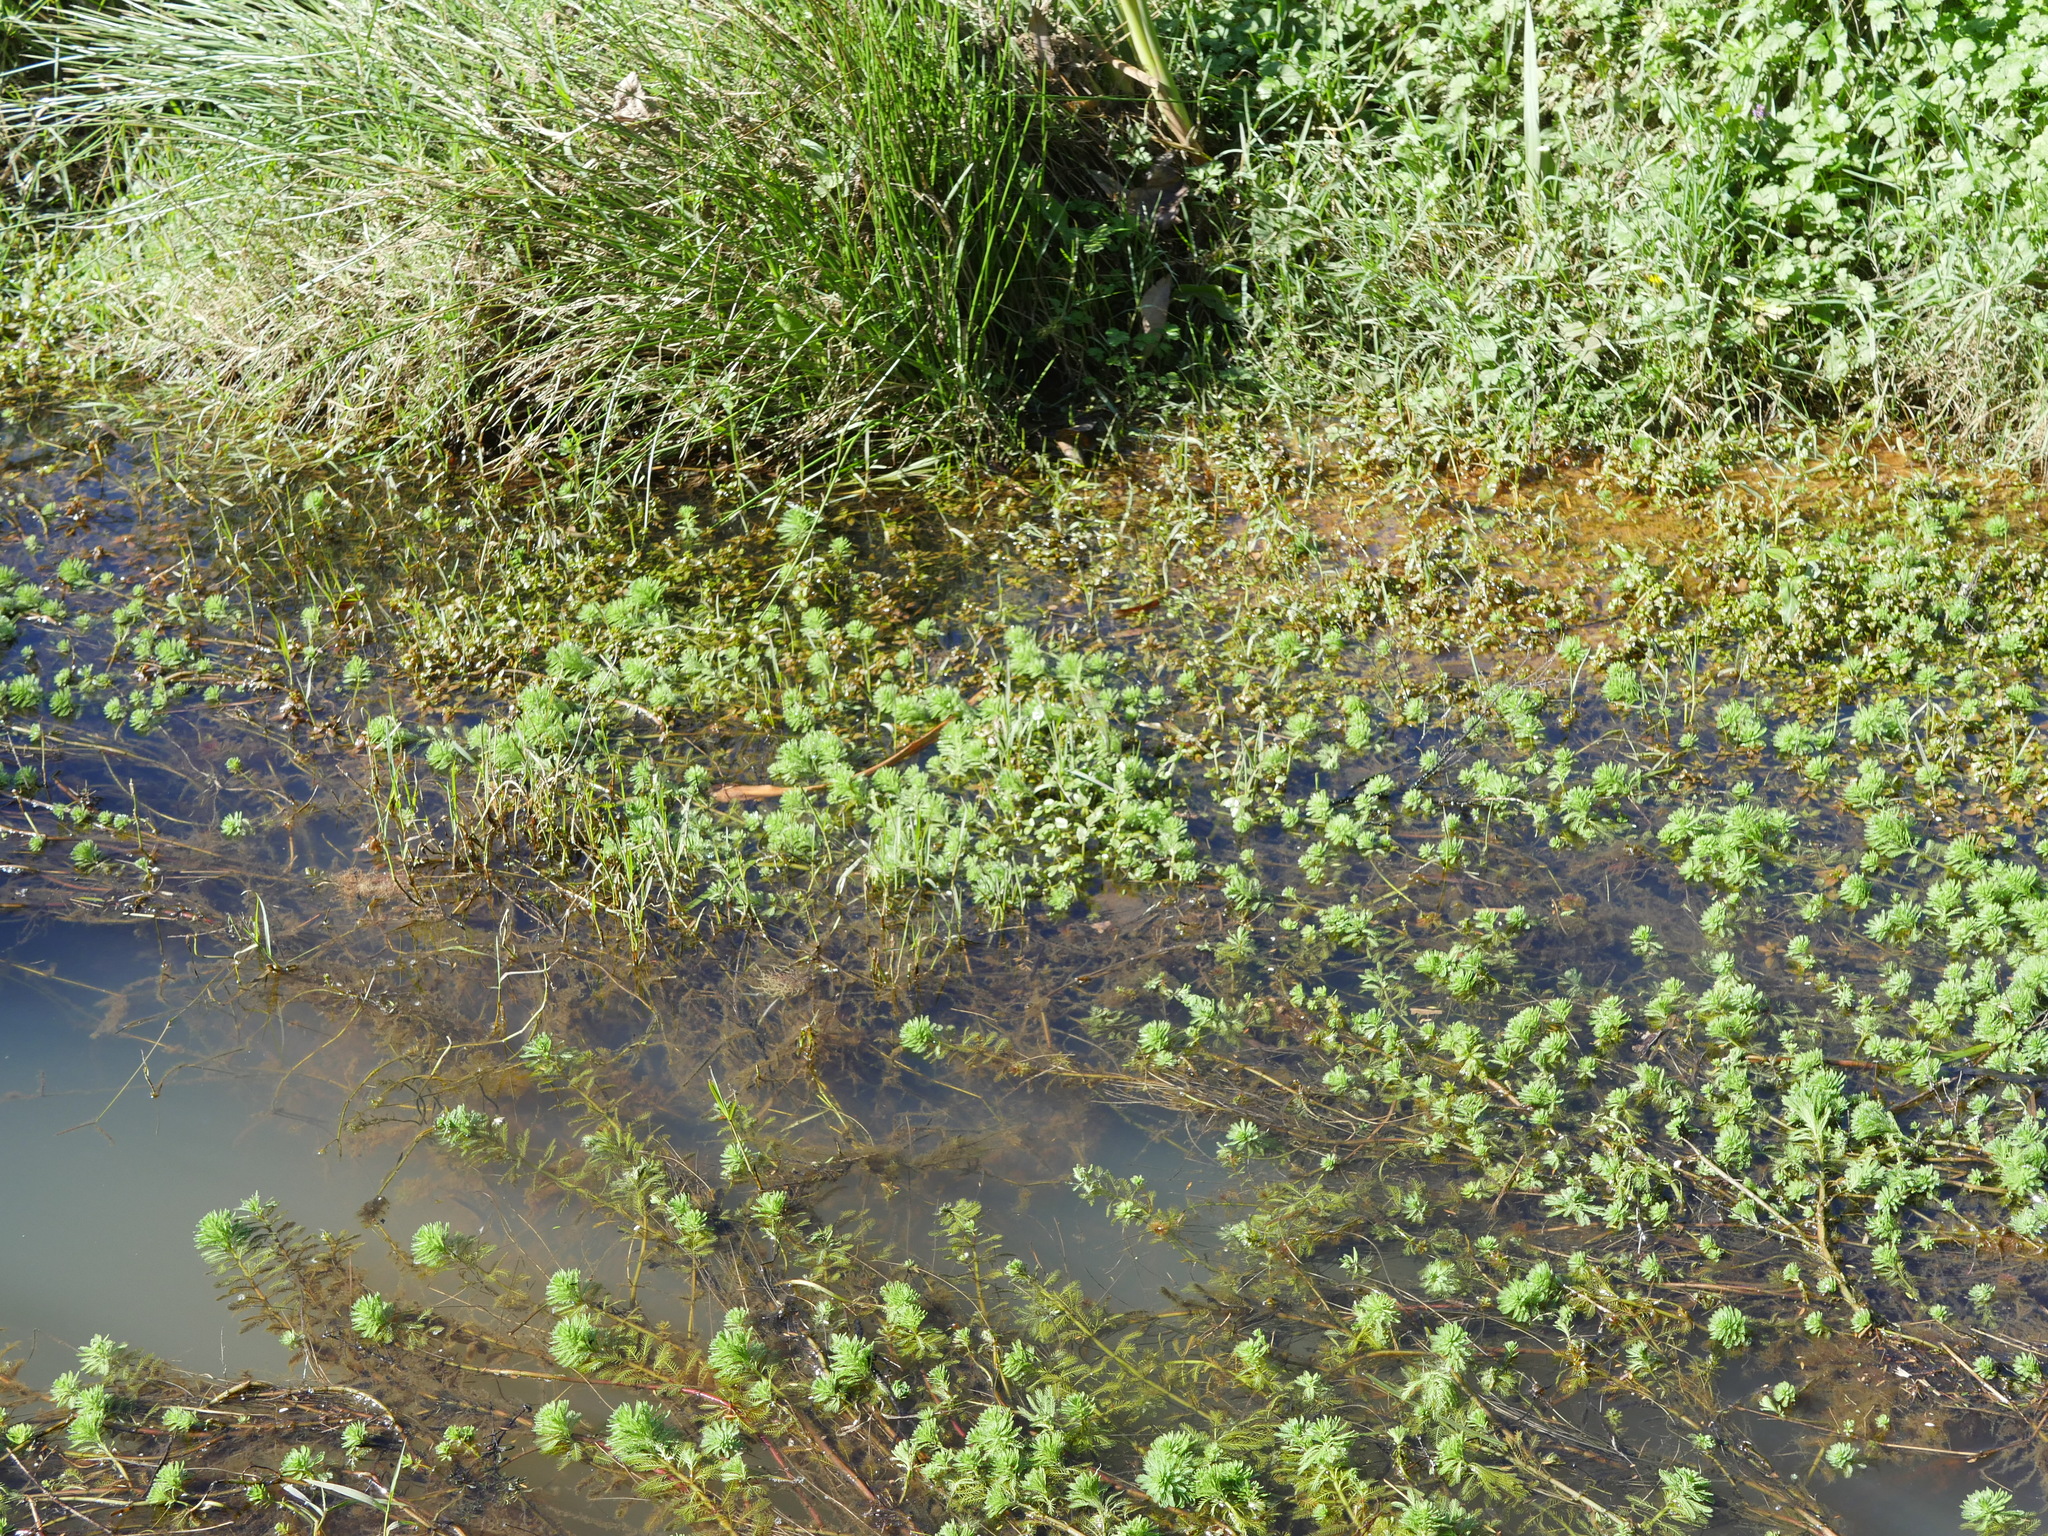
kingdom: Plantae
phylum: Tracheophyta
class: Magnoliopsida
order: Saxifragales
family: Haloragaceae
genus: Myriophyllum
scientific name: Myriophyllum aquaticum
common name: Parrot's feather
